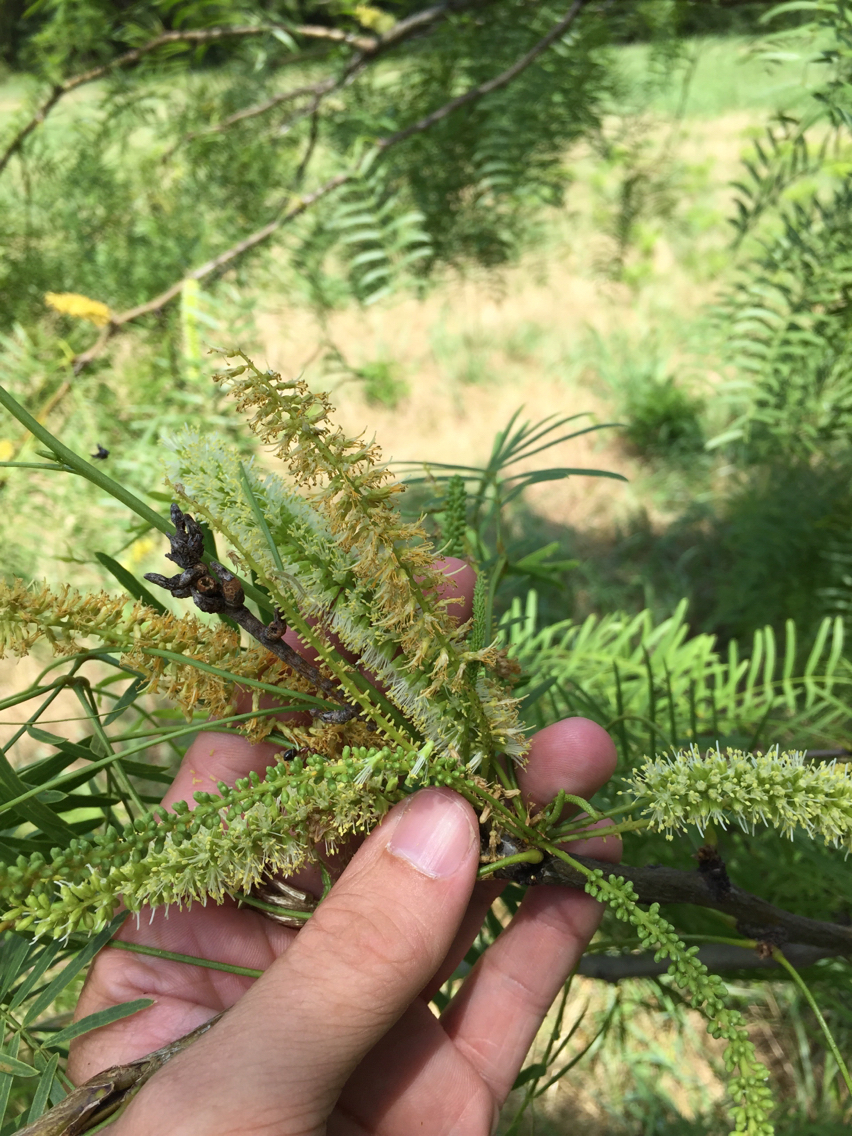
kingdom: Plantae
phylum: Tracheophyta
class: Magnoliopsida
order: Fabales
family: Fabaceae
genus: Prosopis
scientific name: Prosopis glandulosa
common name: Honey mesquite
